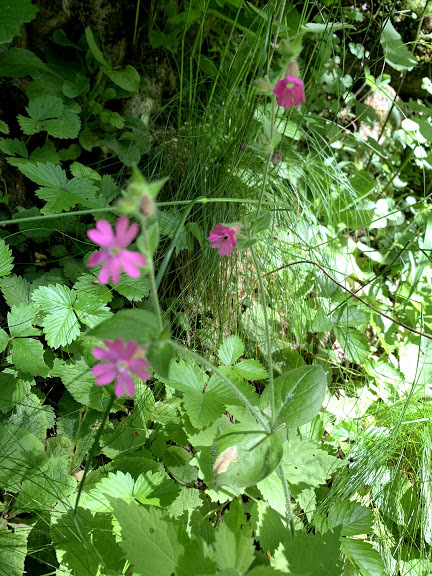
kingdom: Plantae
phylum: Tracheophyta
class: Magnoliopsida
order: Caryophyllales
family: Caryophyllaceae
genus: Silene
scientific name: Silene dioica
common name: Red campion
